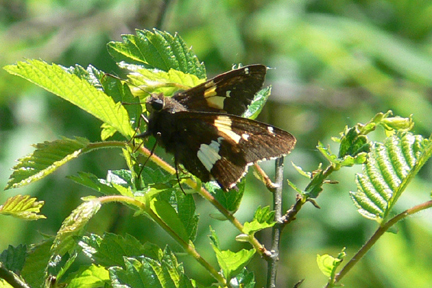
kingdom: Animalia
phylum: Arthropoda
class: Insecta
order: Lepidoptera
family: Hesperiidae
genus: Epargyreus
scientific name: Epargyreus clarus
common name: Silver-spotted skipper
